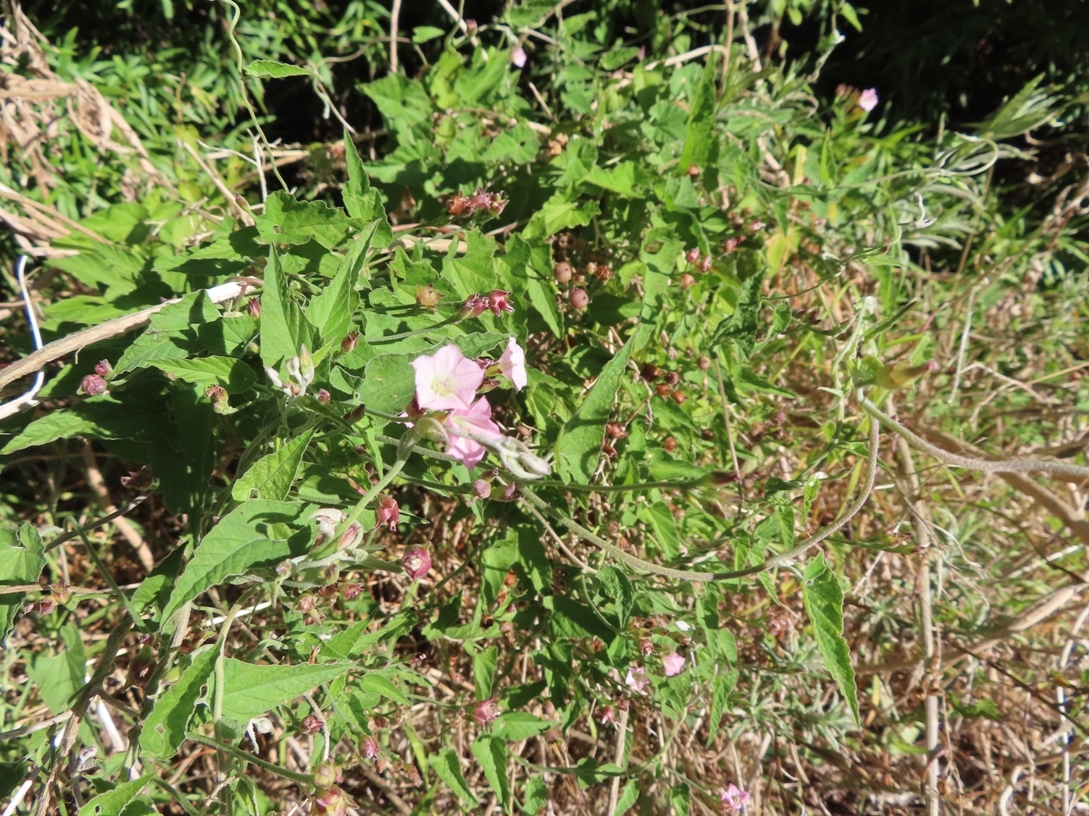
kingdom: Plantae
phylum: Tracheophyta
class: Magnoliopsida
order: Solanales
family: Convolvulaceae
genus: Convolvulus
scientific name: Convolvulus farinosus
